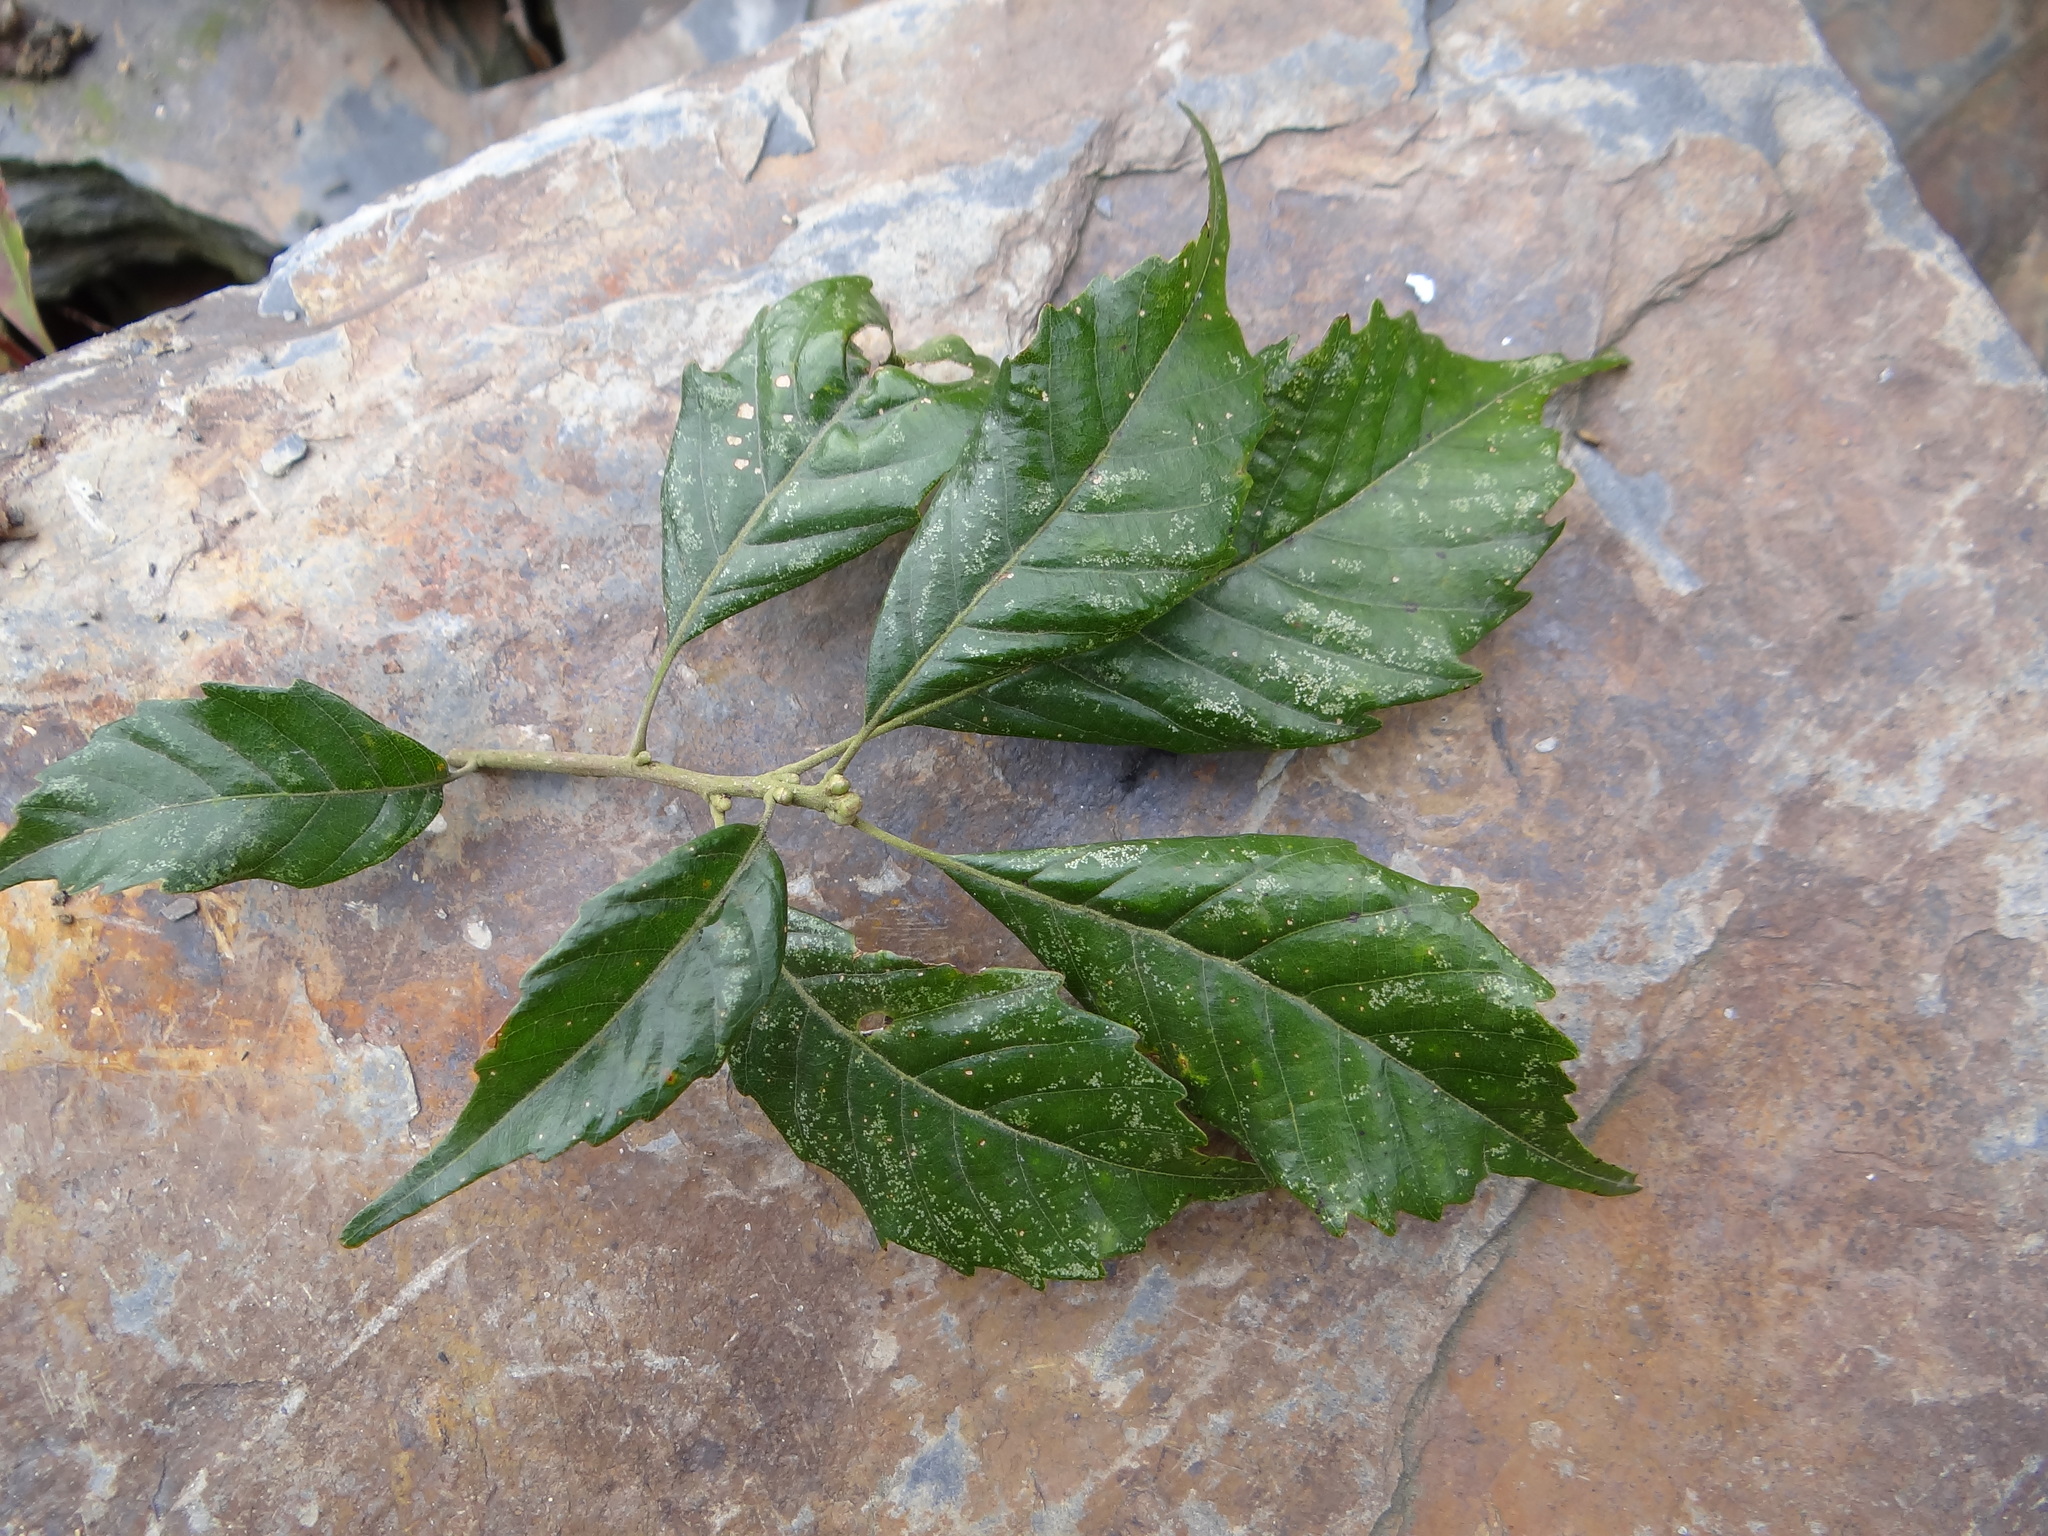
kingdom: Plantae
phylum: Tracheophyta
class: Magnoliopsida
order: Fagales
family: Fagaceae
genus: Lithocarpus
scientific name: Lithocarpus corneus
